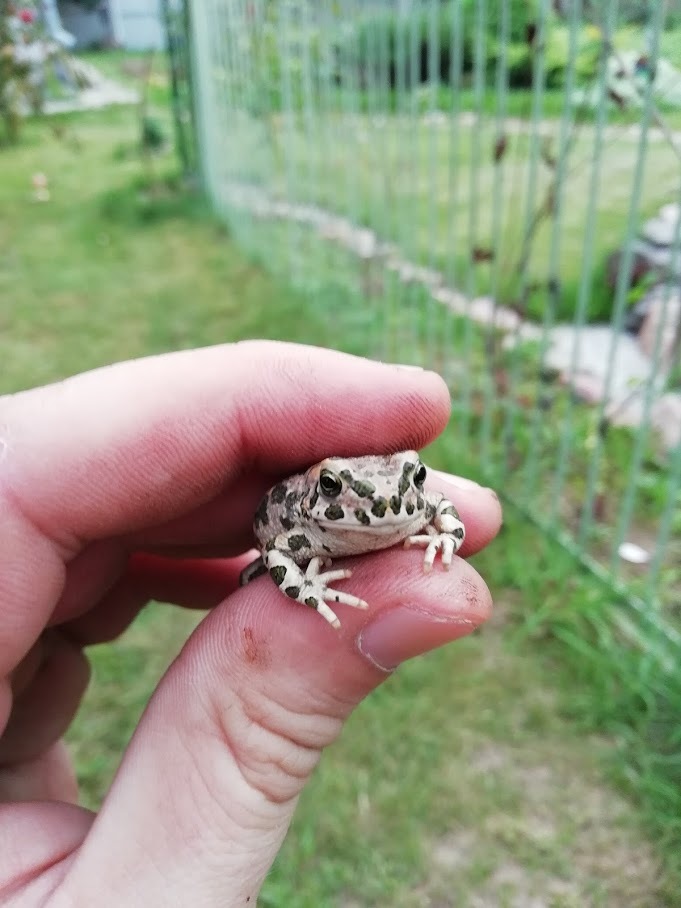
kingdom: Animalia
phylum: Chordata
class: Amphibia
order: Anura
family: Bufonidae
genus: Bufotes
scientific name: Bufotes viridis
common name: European green toad
